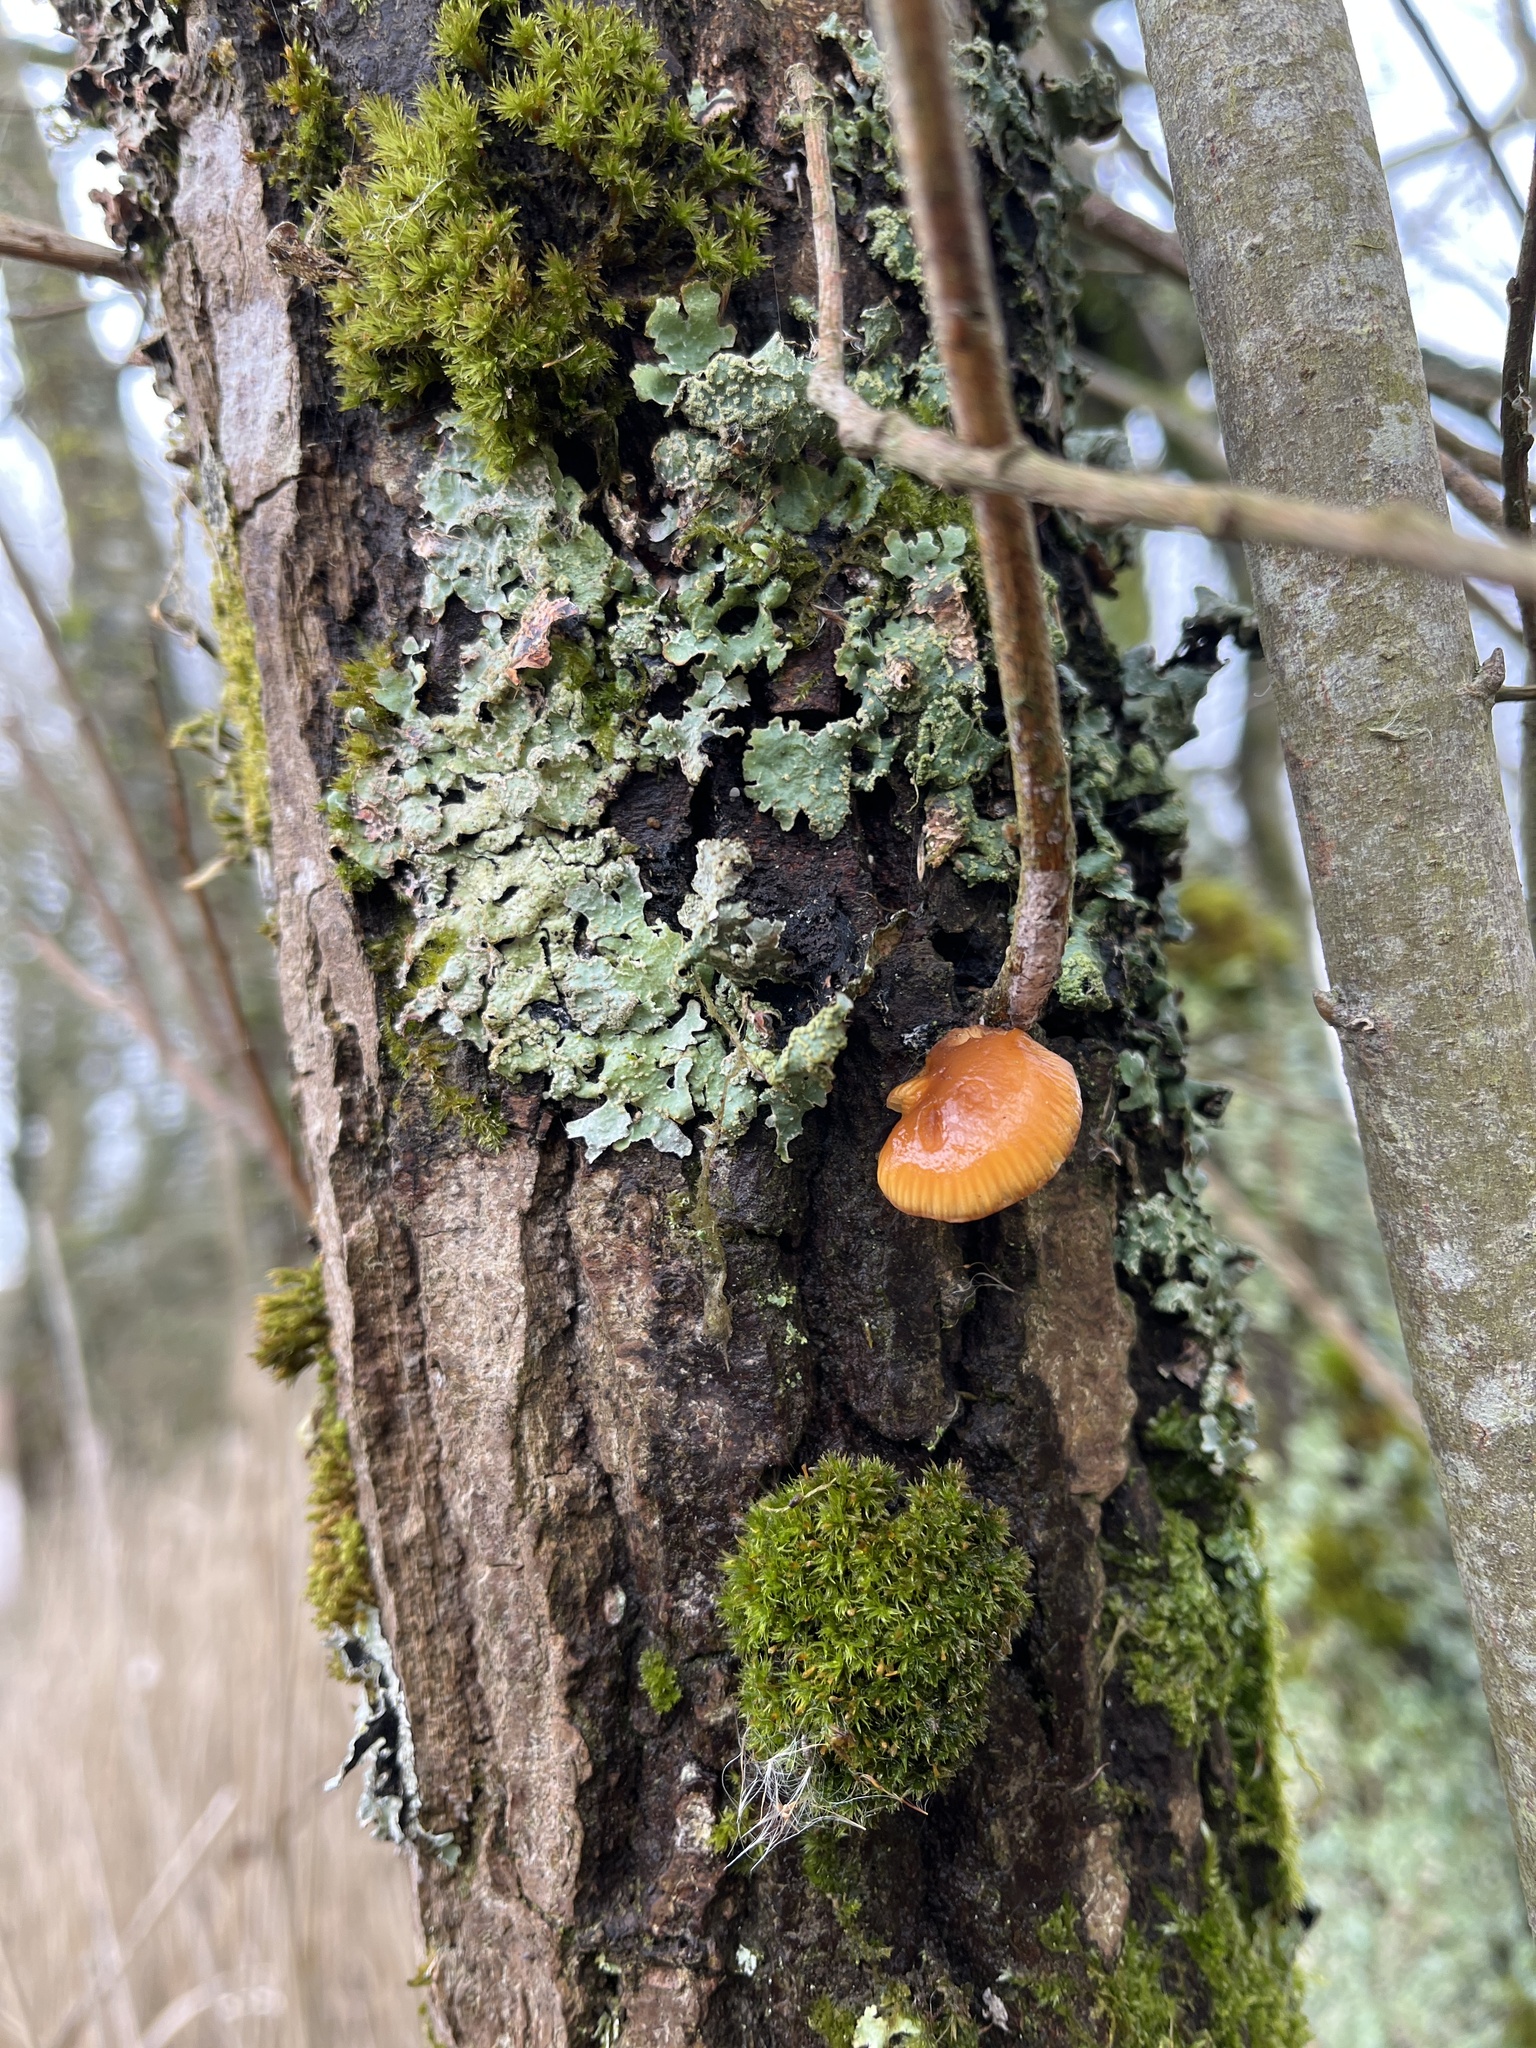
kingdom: Fungi
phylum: Basidiomycota
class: Agaricomycetes
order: Agaricales
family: Physalacriaceae
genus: Flammulina
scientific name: Flammulina
